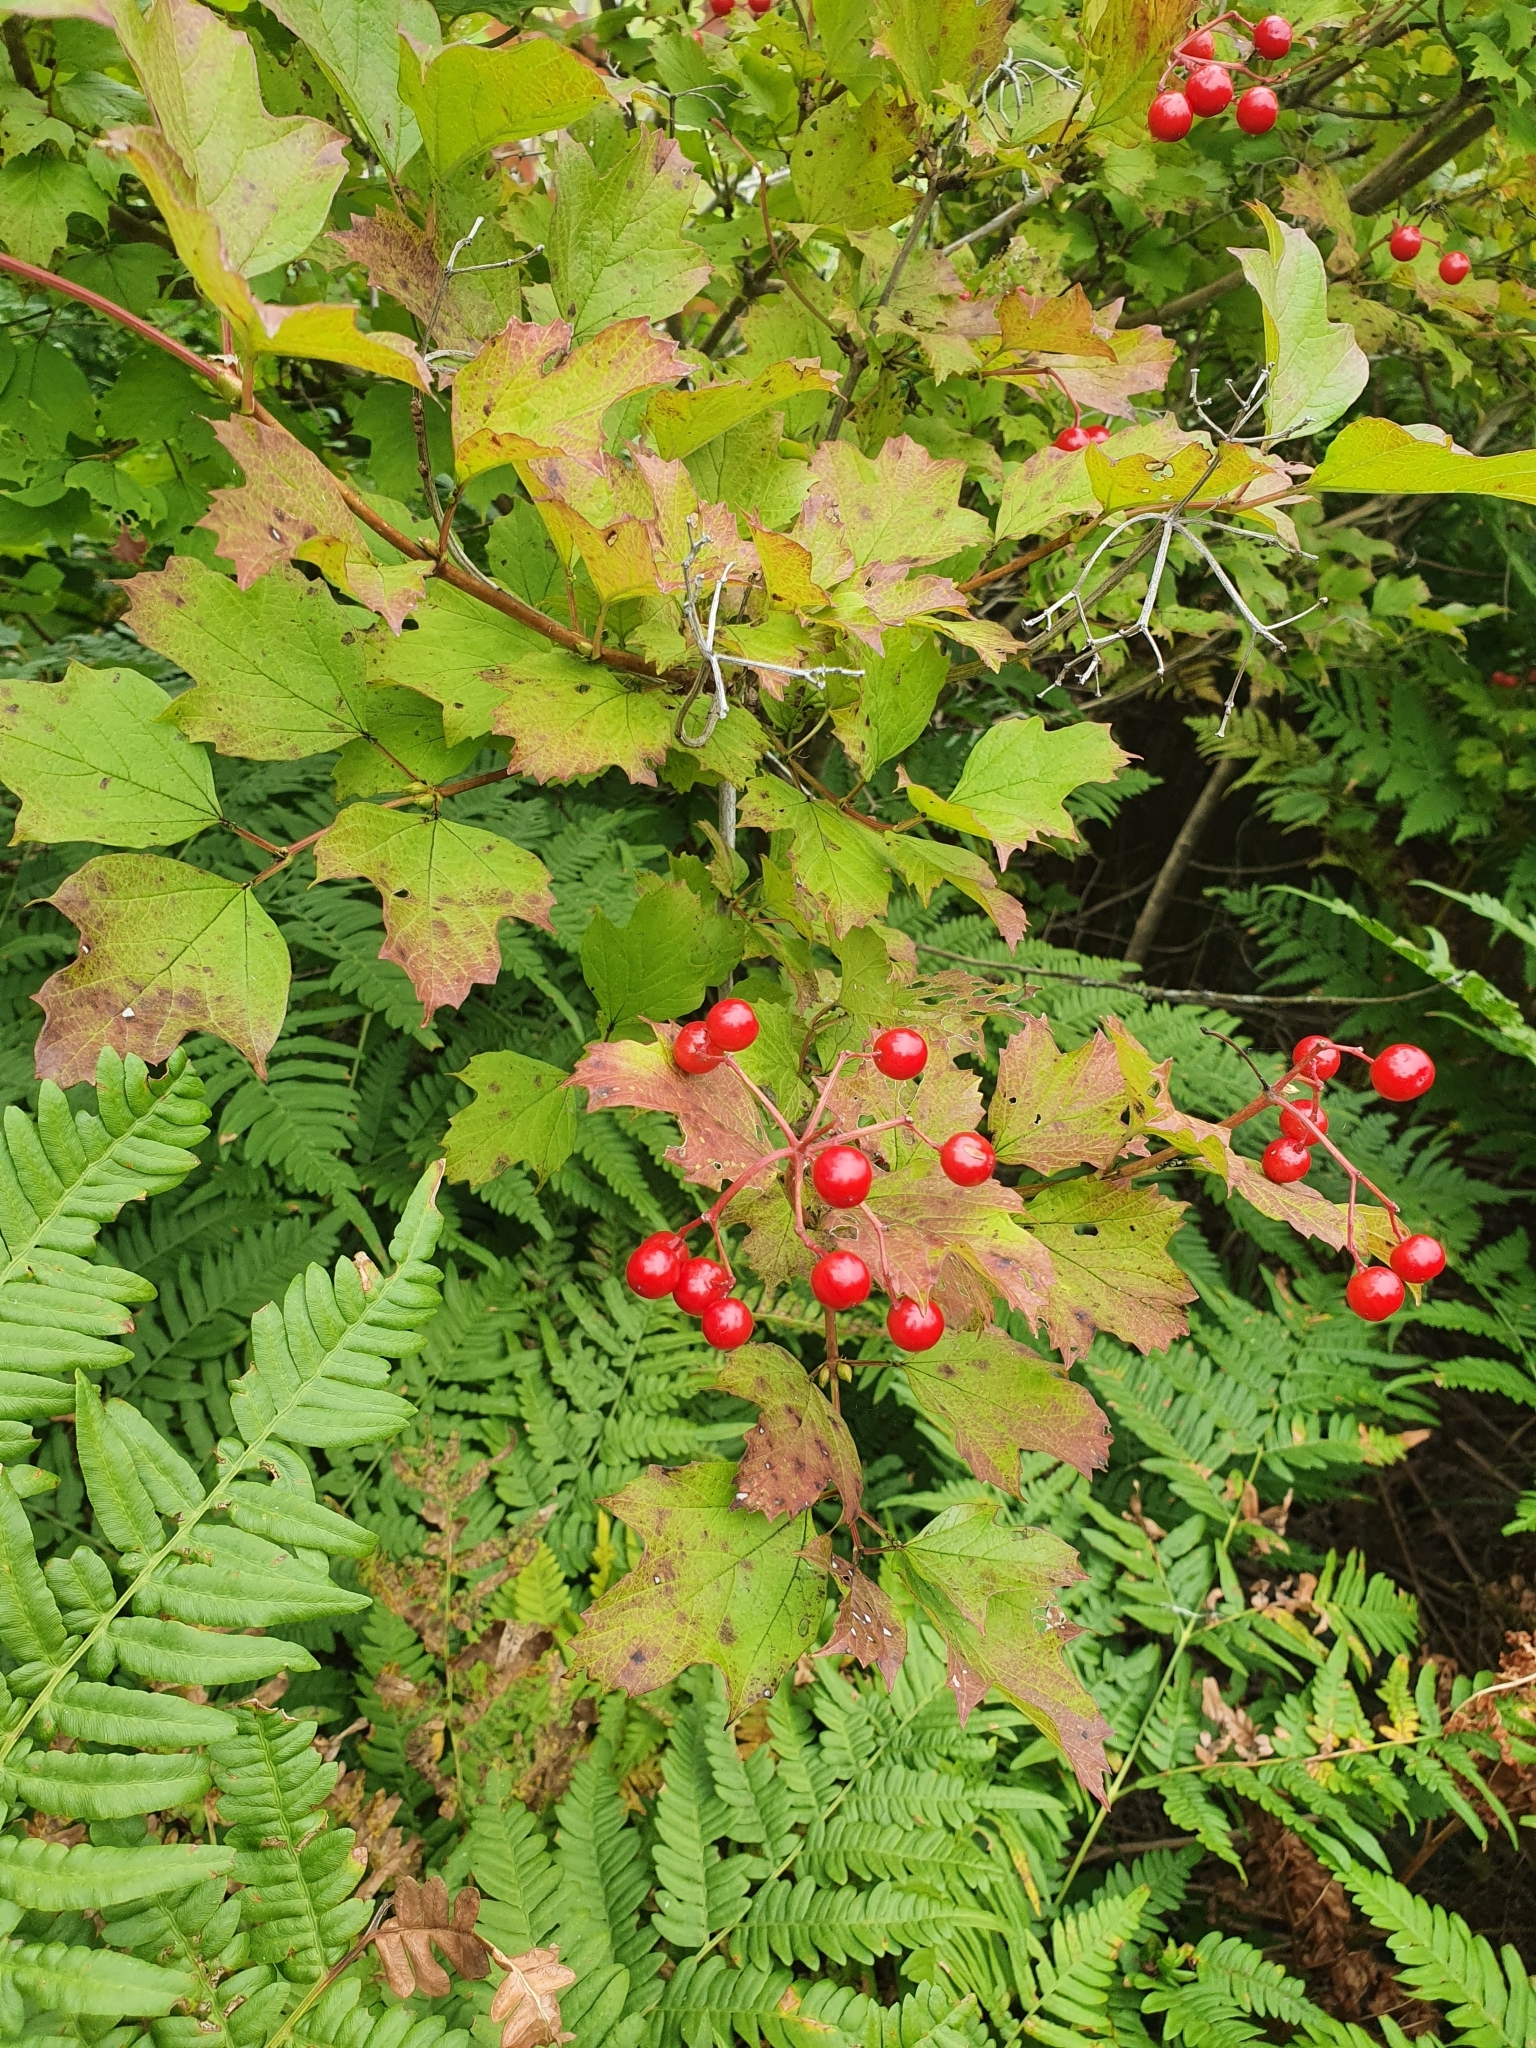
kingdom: Plantae
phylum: Tracheophyta
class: Magnoliopsida
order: Dipsacales
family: Viburnaceae
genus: Viburnum
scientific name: Viburnum opulus
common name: Guelder-rose
